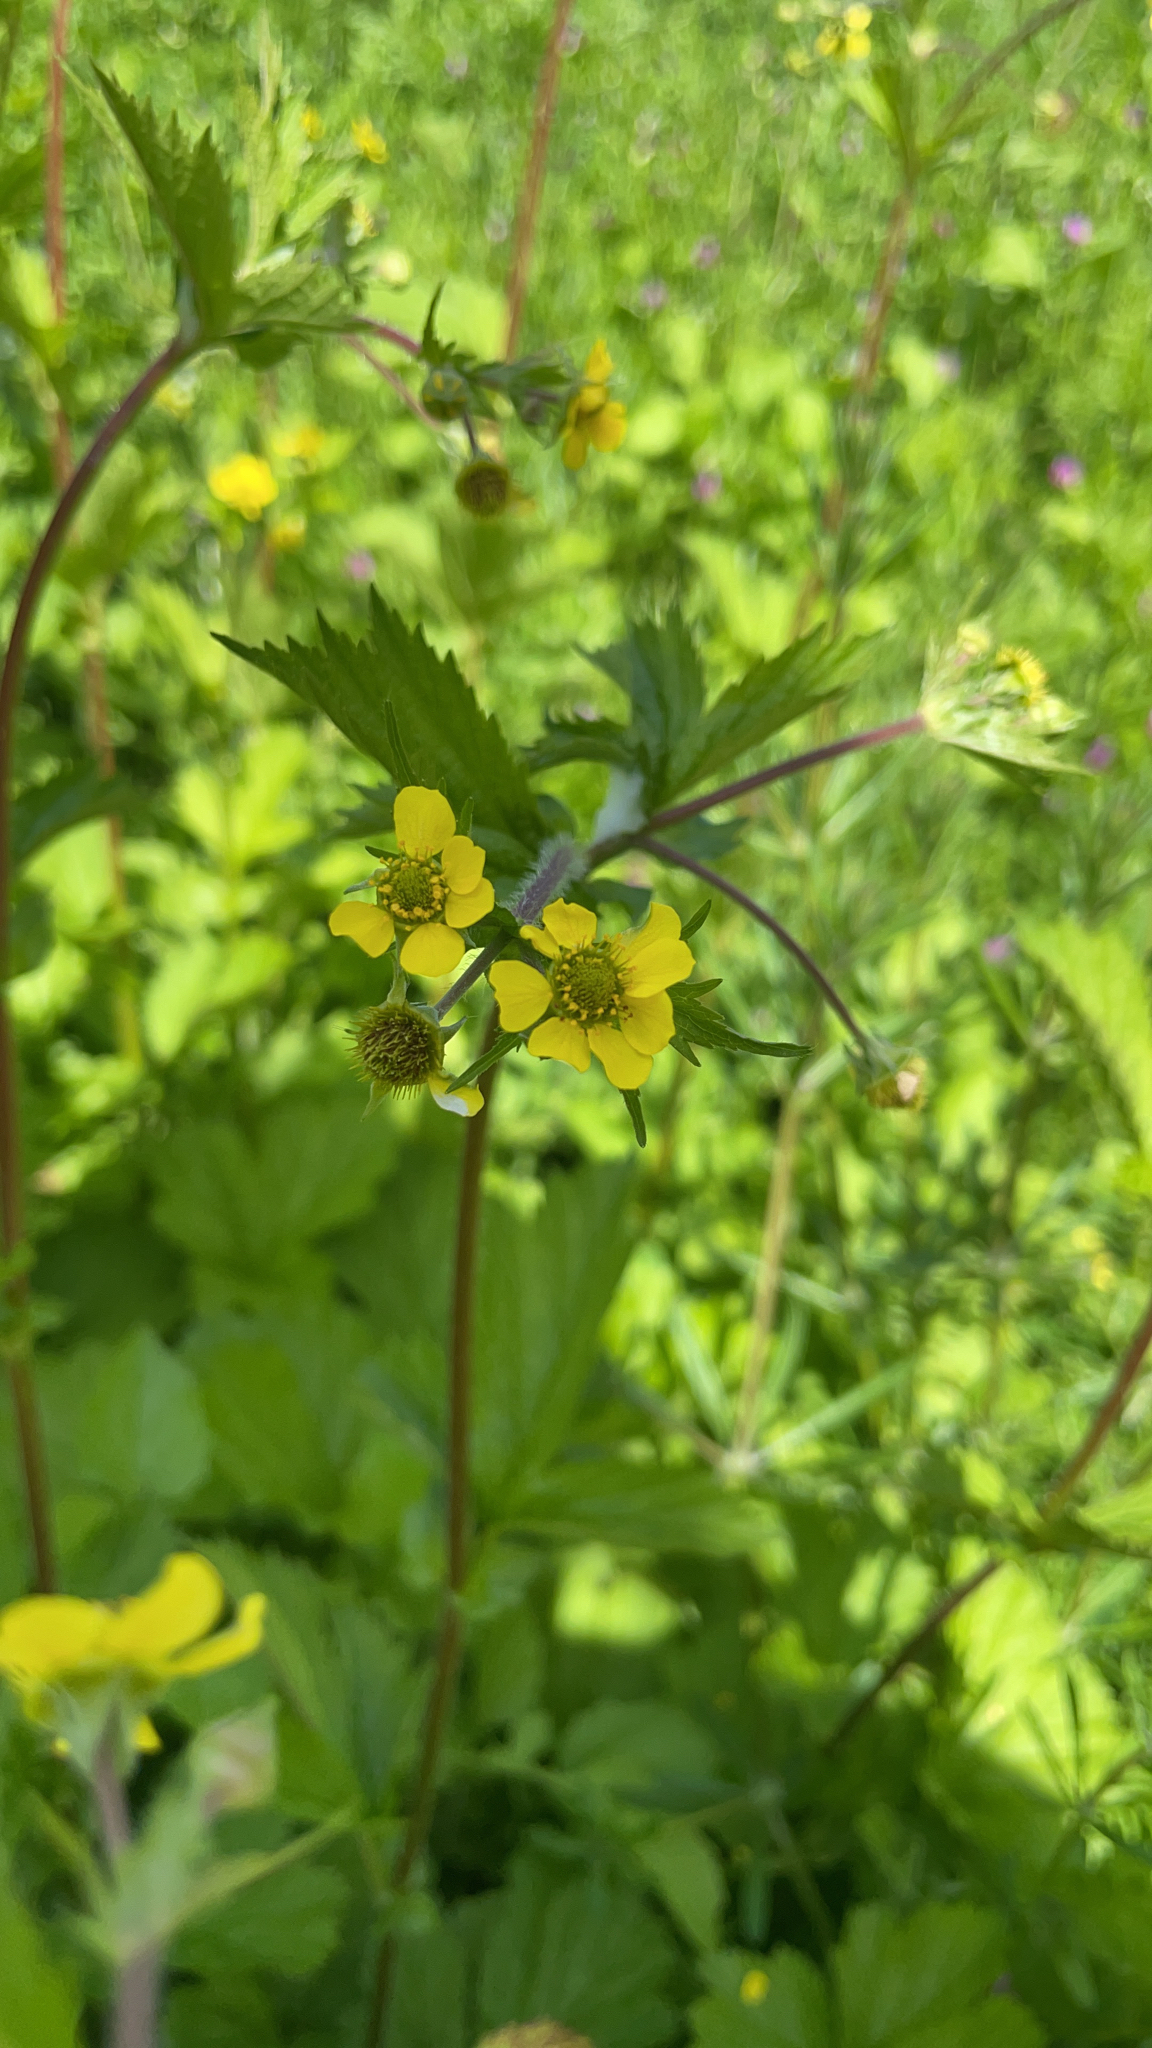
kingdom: Plantae
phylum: Tracheophyta
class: Magnoliopsida
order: Rosales
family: Rosaceae
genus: Geum
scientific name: Geum macrophyllum
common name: Large-leaved avens
